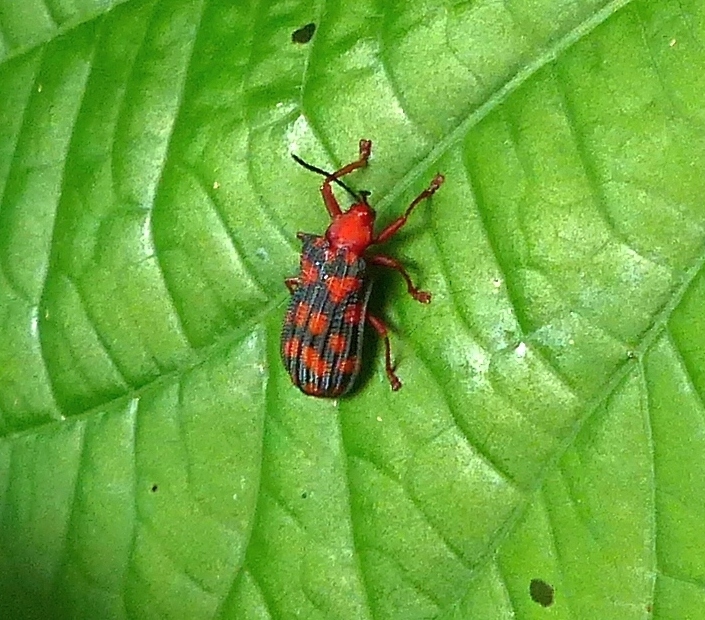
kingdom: Animalia
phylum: Arthropoda
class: Insecta
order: Coleoptera
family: Chrysomelidae
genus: Sceloenopla
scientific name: Sceloenopla maculata
